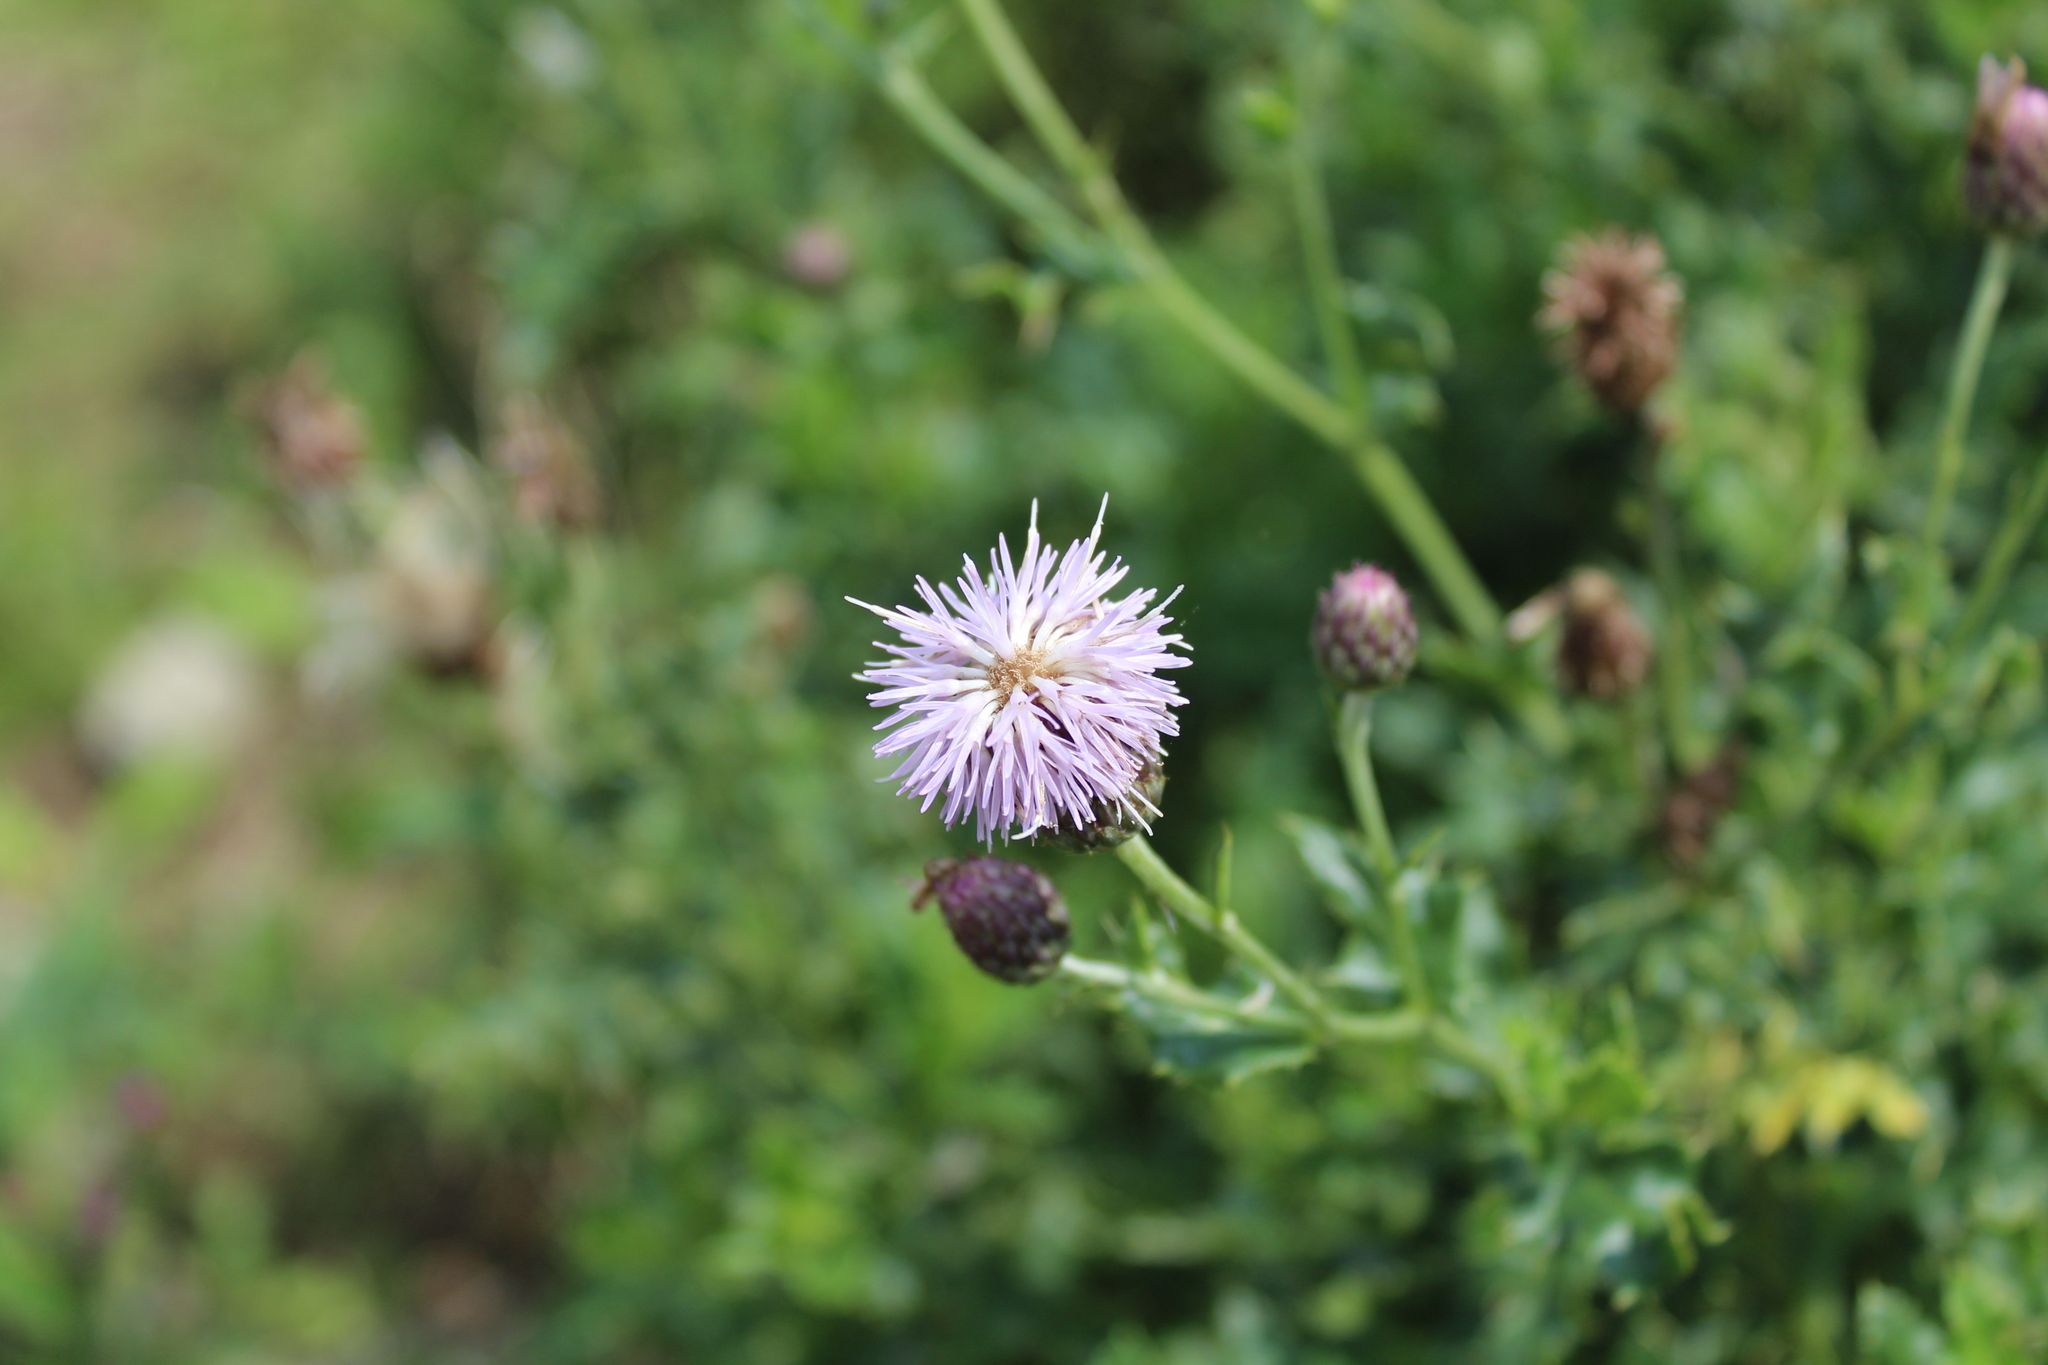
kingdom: Plantae
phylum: Tracheophyta
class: Magnoliopsida
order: Asterales
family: Asteraceae
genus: Cirsium
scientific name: Cirsium arvense
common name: Creeping thistle
